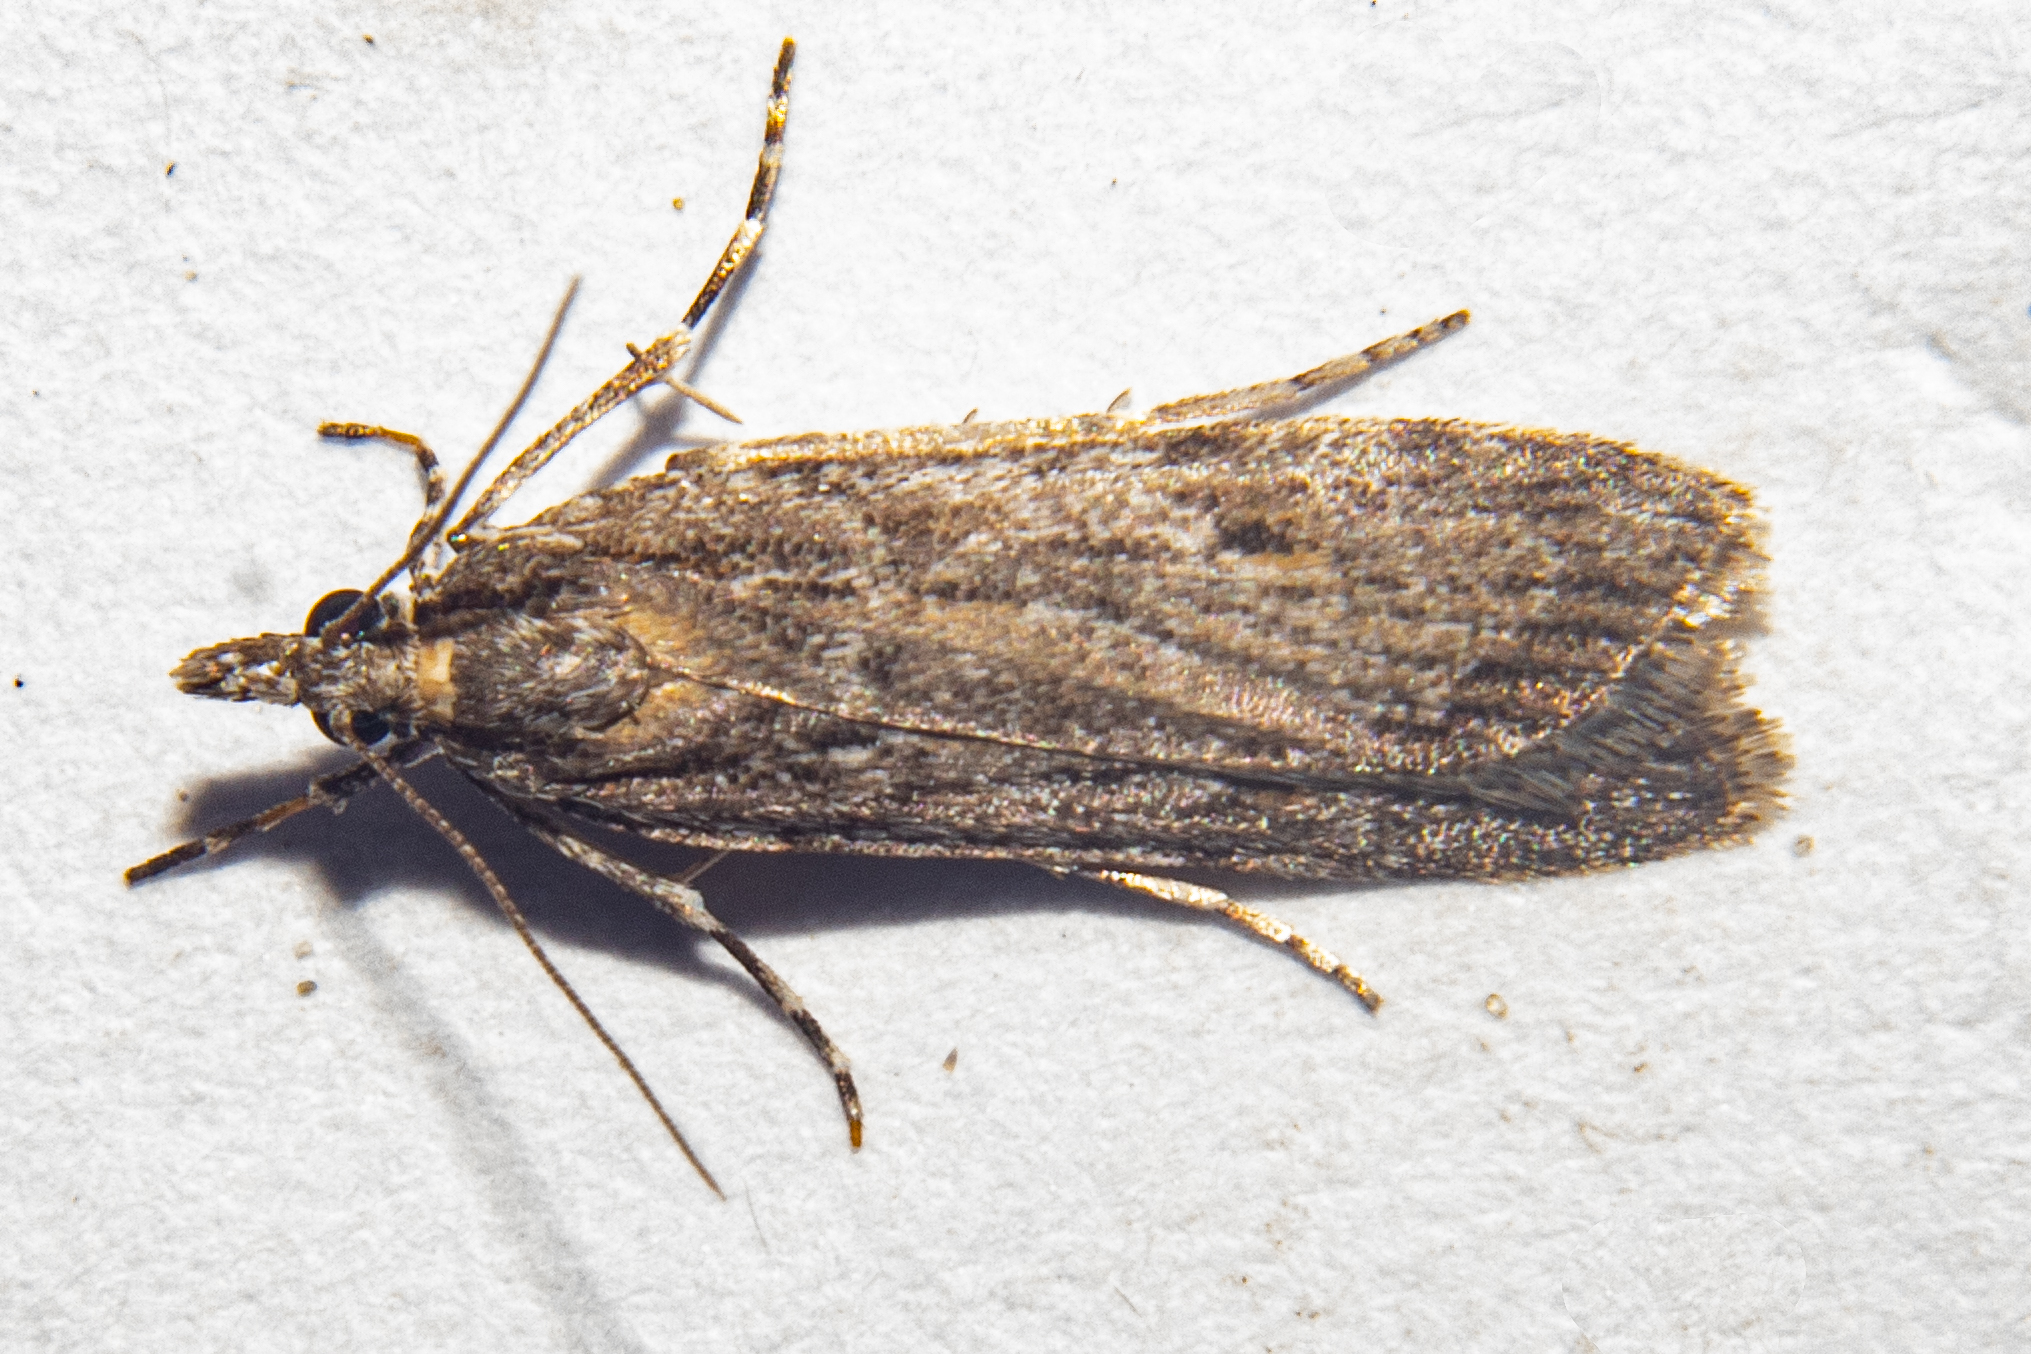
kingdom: Animalia
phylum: Arthropoda
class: Insecta
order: Lepidoptera
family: Crambidae
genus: Scoparia
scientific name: Scoparia indistinctalis
